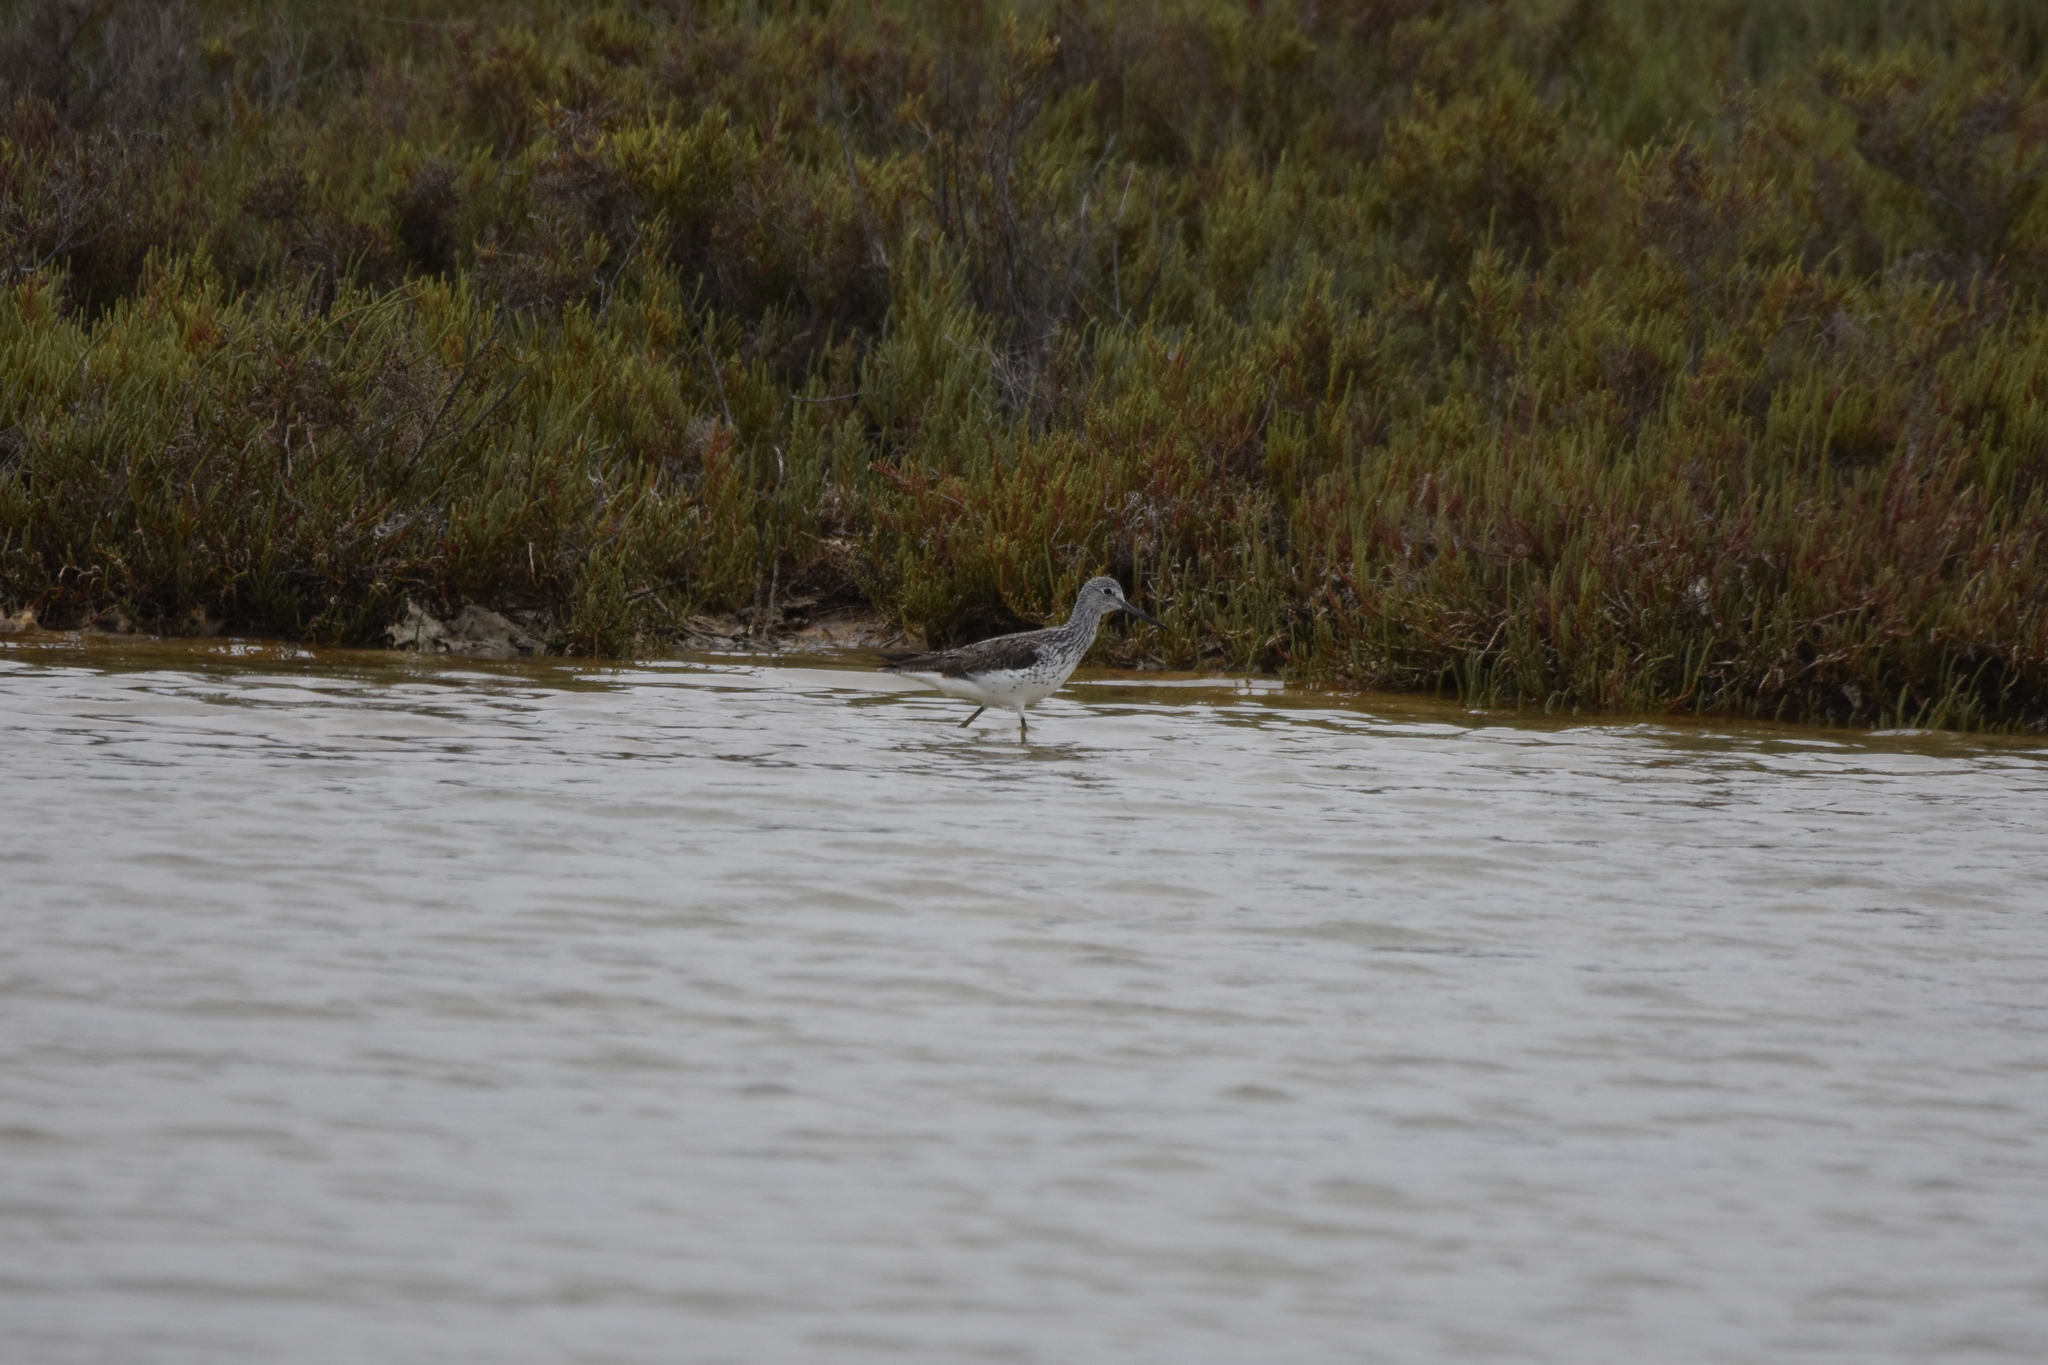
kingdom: Animalia
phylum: Chordata
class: Aves
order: Charadriiformes
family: Scolopacidae
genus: Tringa
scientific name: Tringa nebularia
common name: Common greenshank
